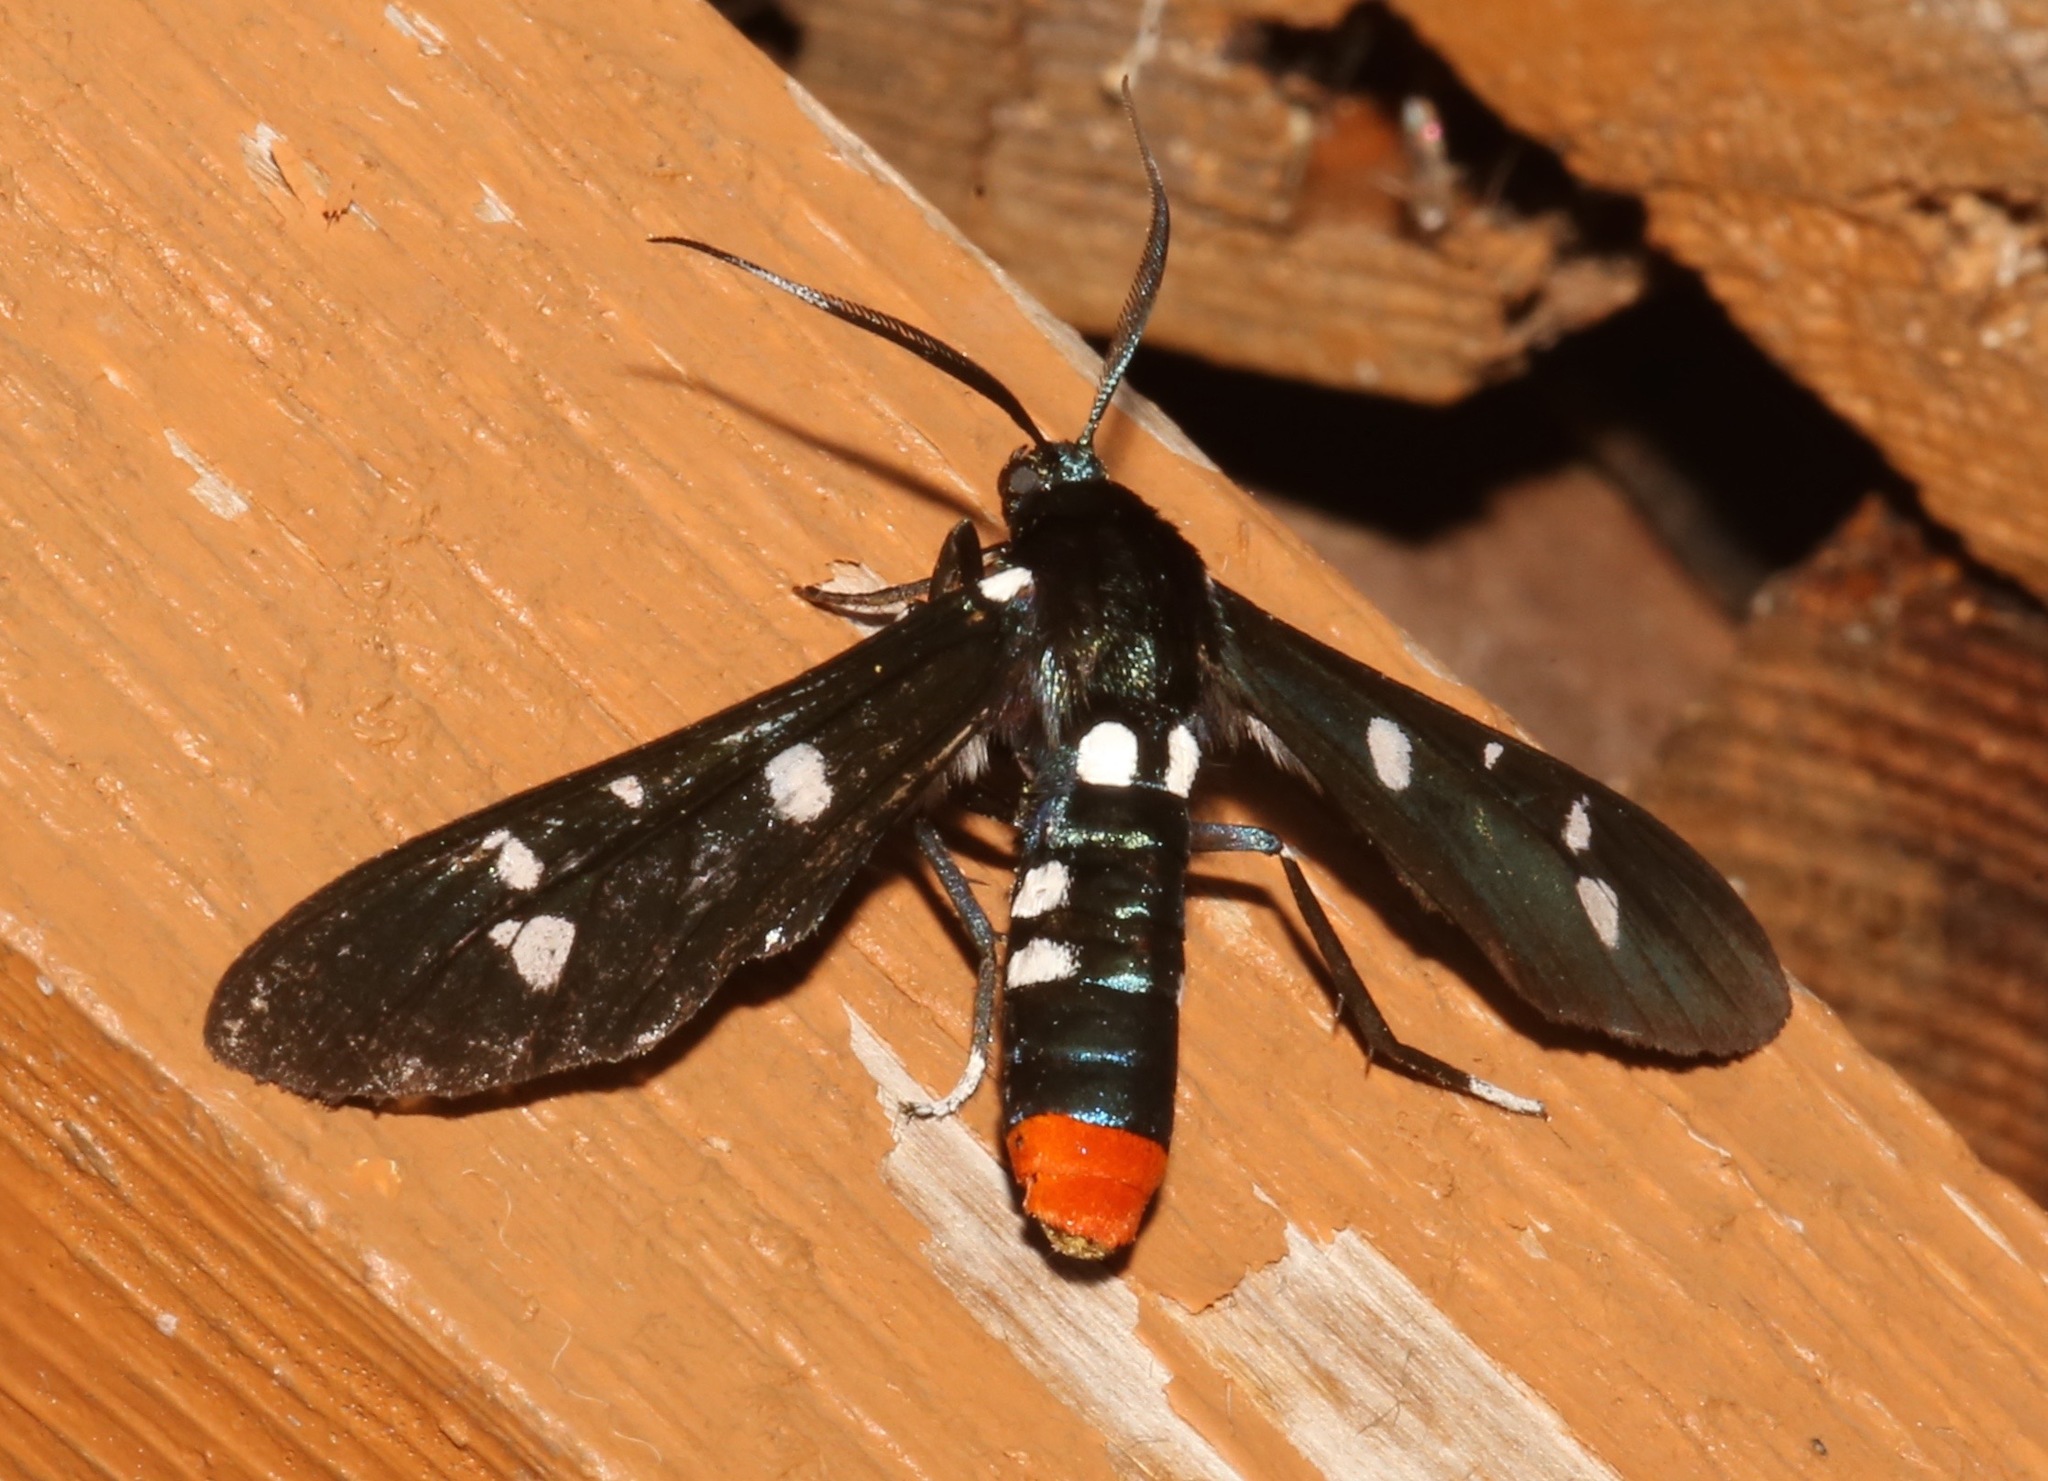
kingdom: Animalia
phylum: Arthropoda
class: Insecta
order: Lepidoptera
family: Erebidae
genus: Syntomeida
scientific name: Syntomeida epilais
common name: Polka-dot wasp moth
